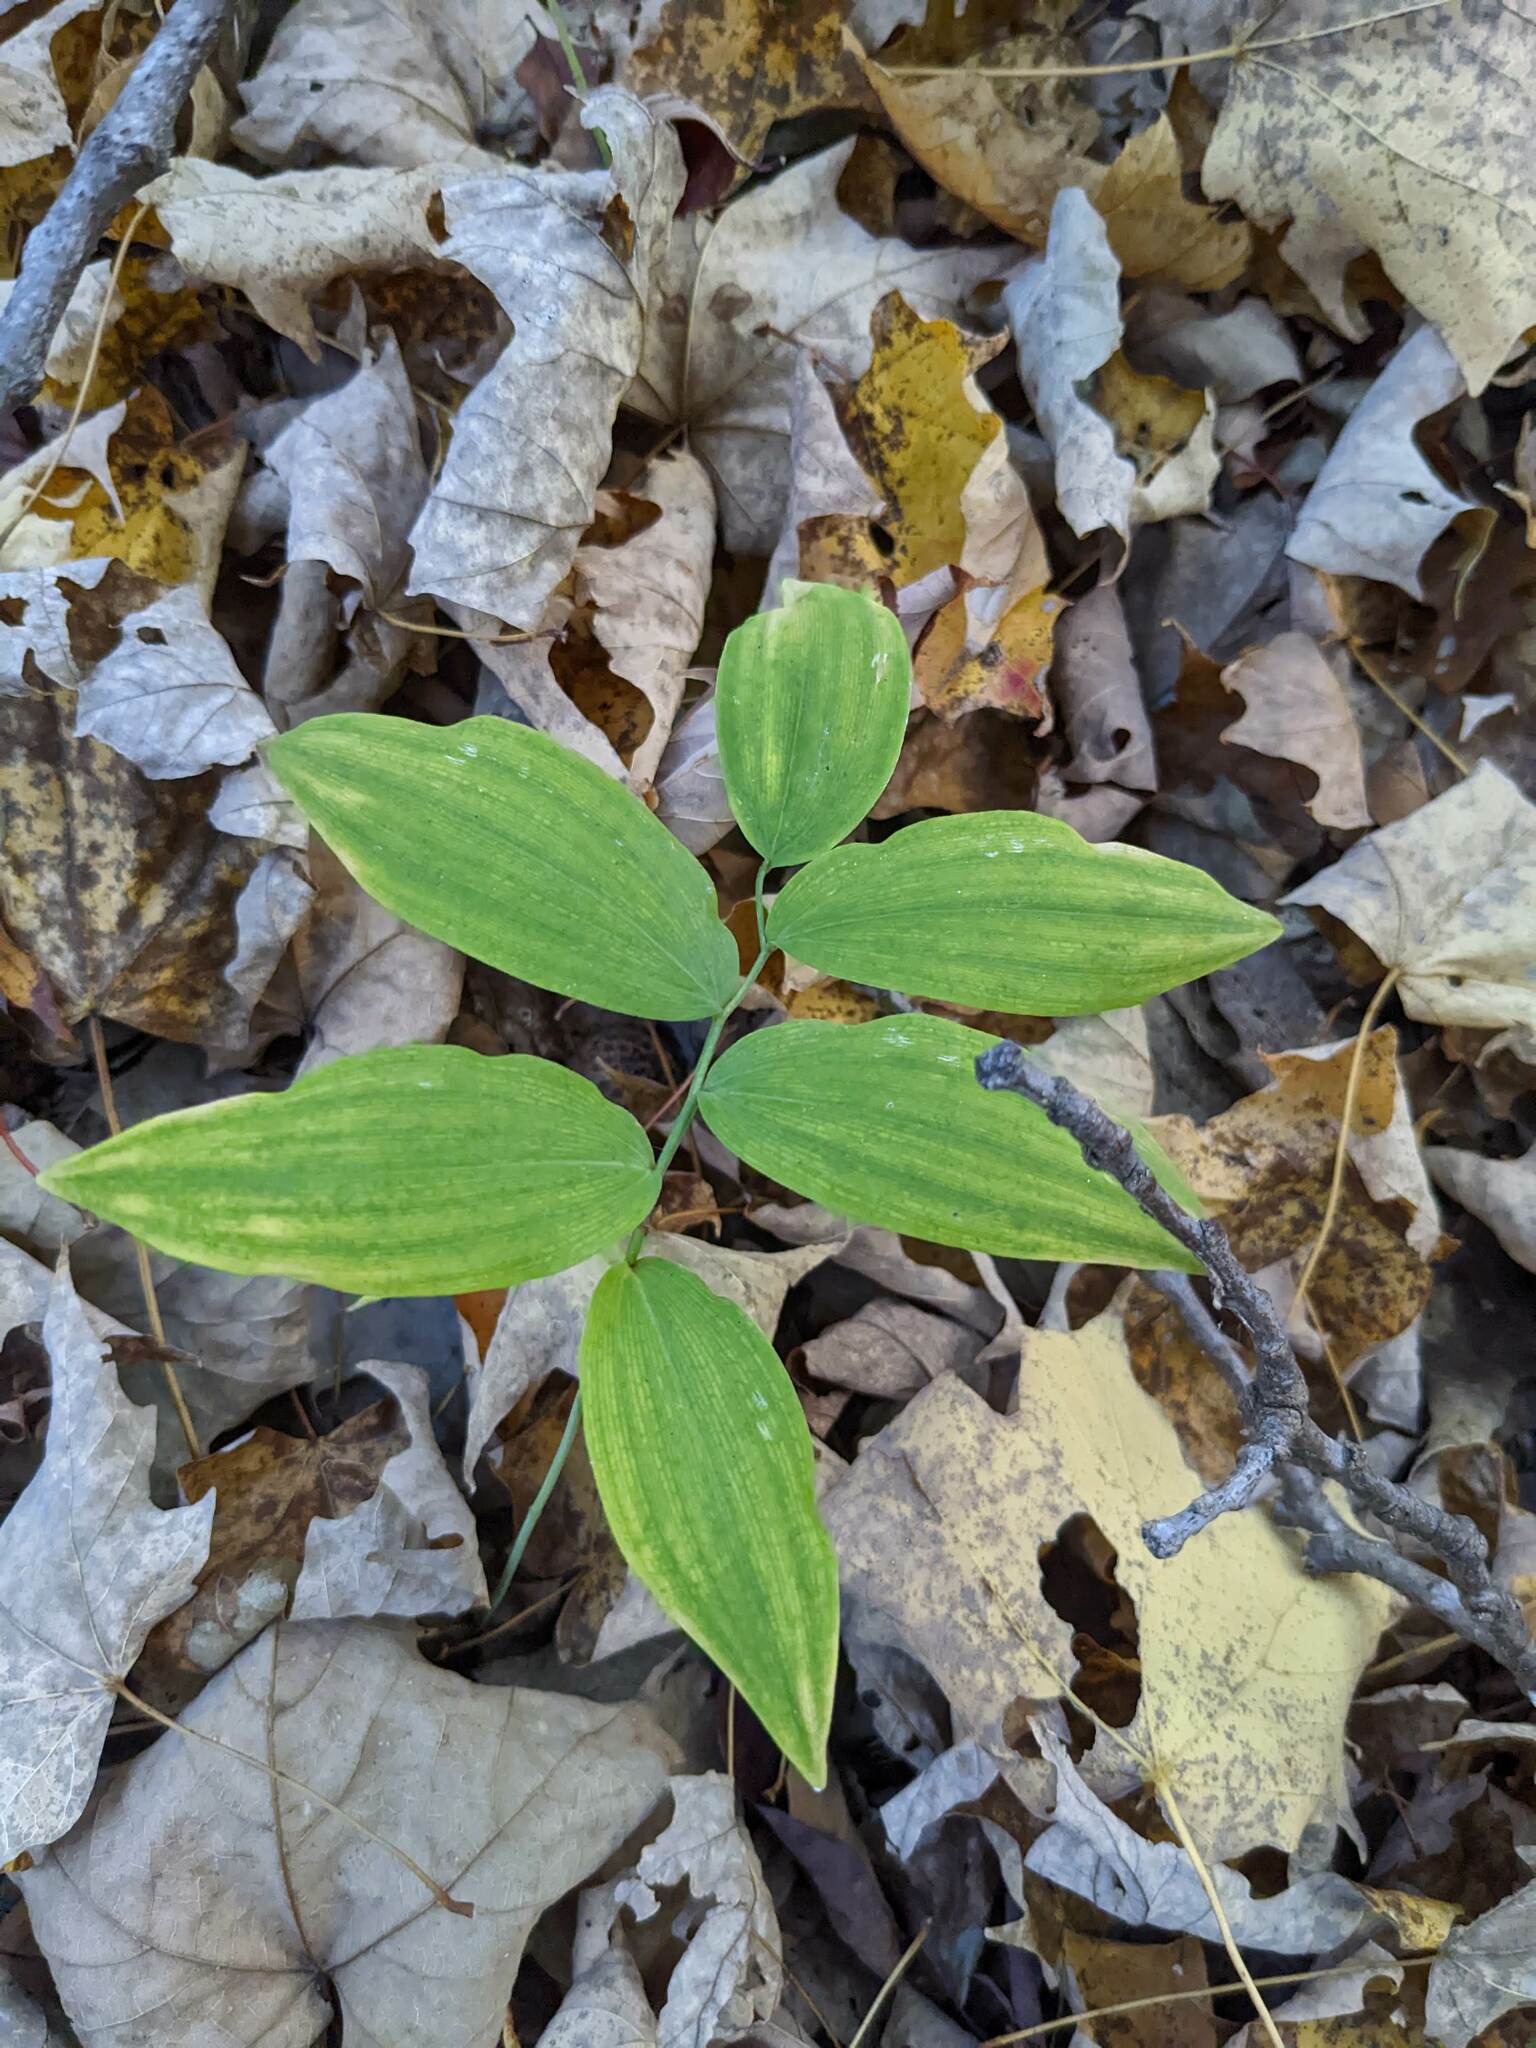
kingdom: Plantae
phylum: Tracheophyta
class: Liliopsida
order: Asparagales
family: Asparagaceae
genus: Polygonatum
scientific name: Polygonatum pubescens
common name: Downy solomon's seal
